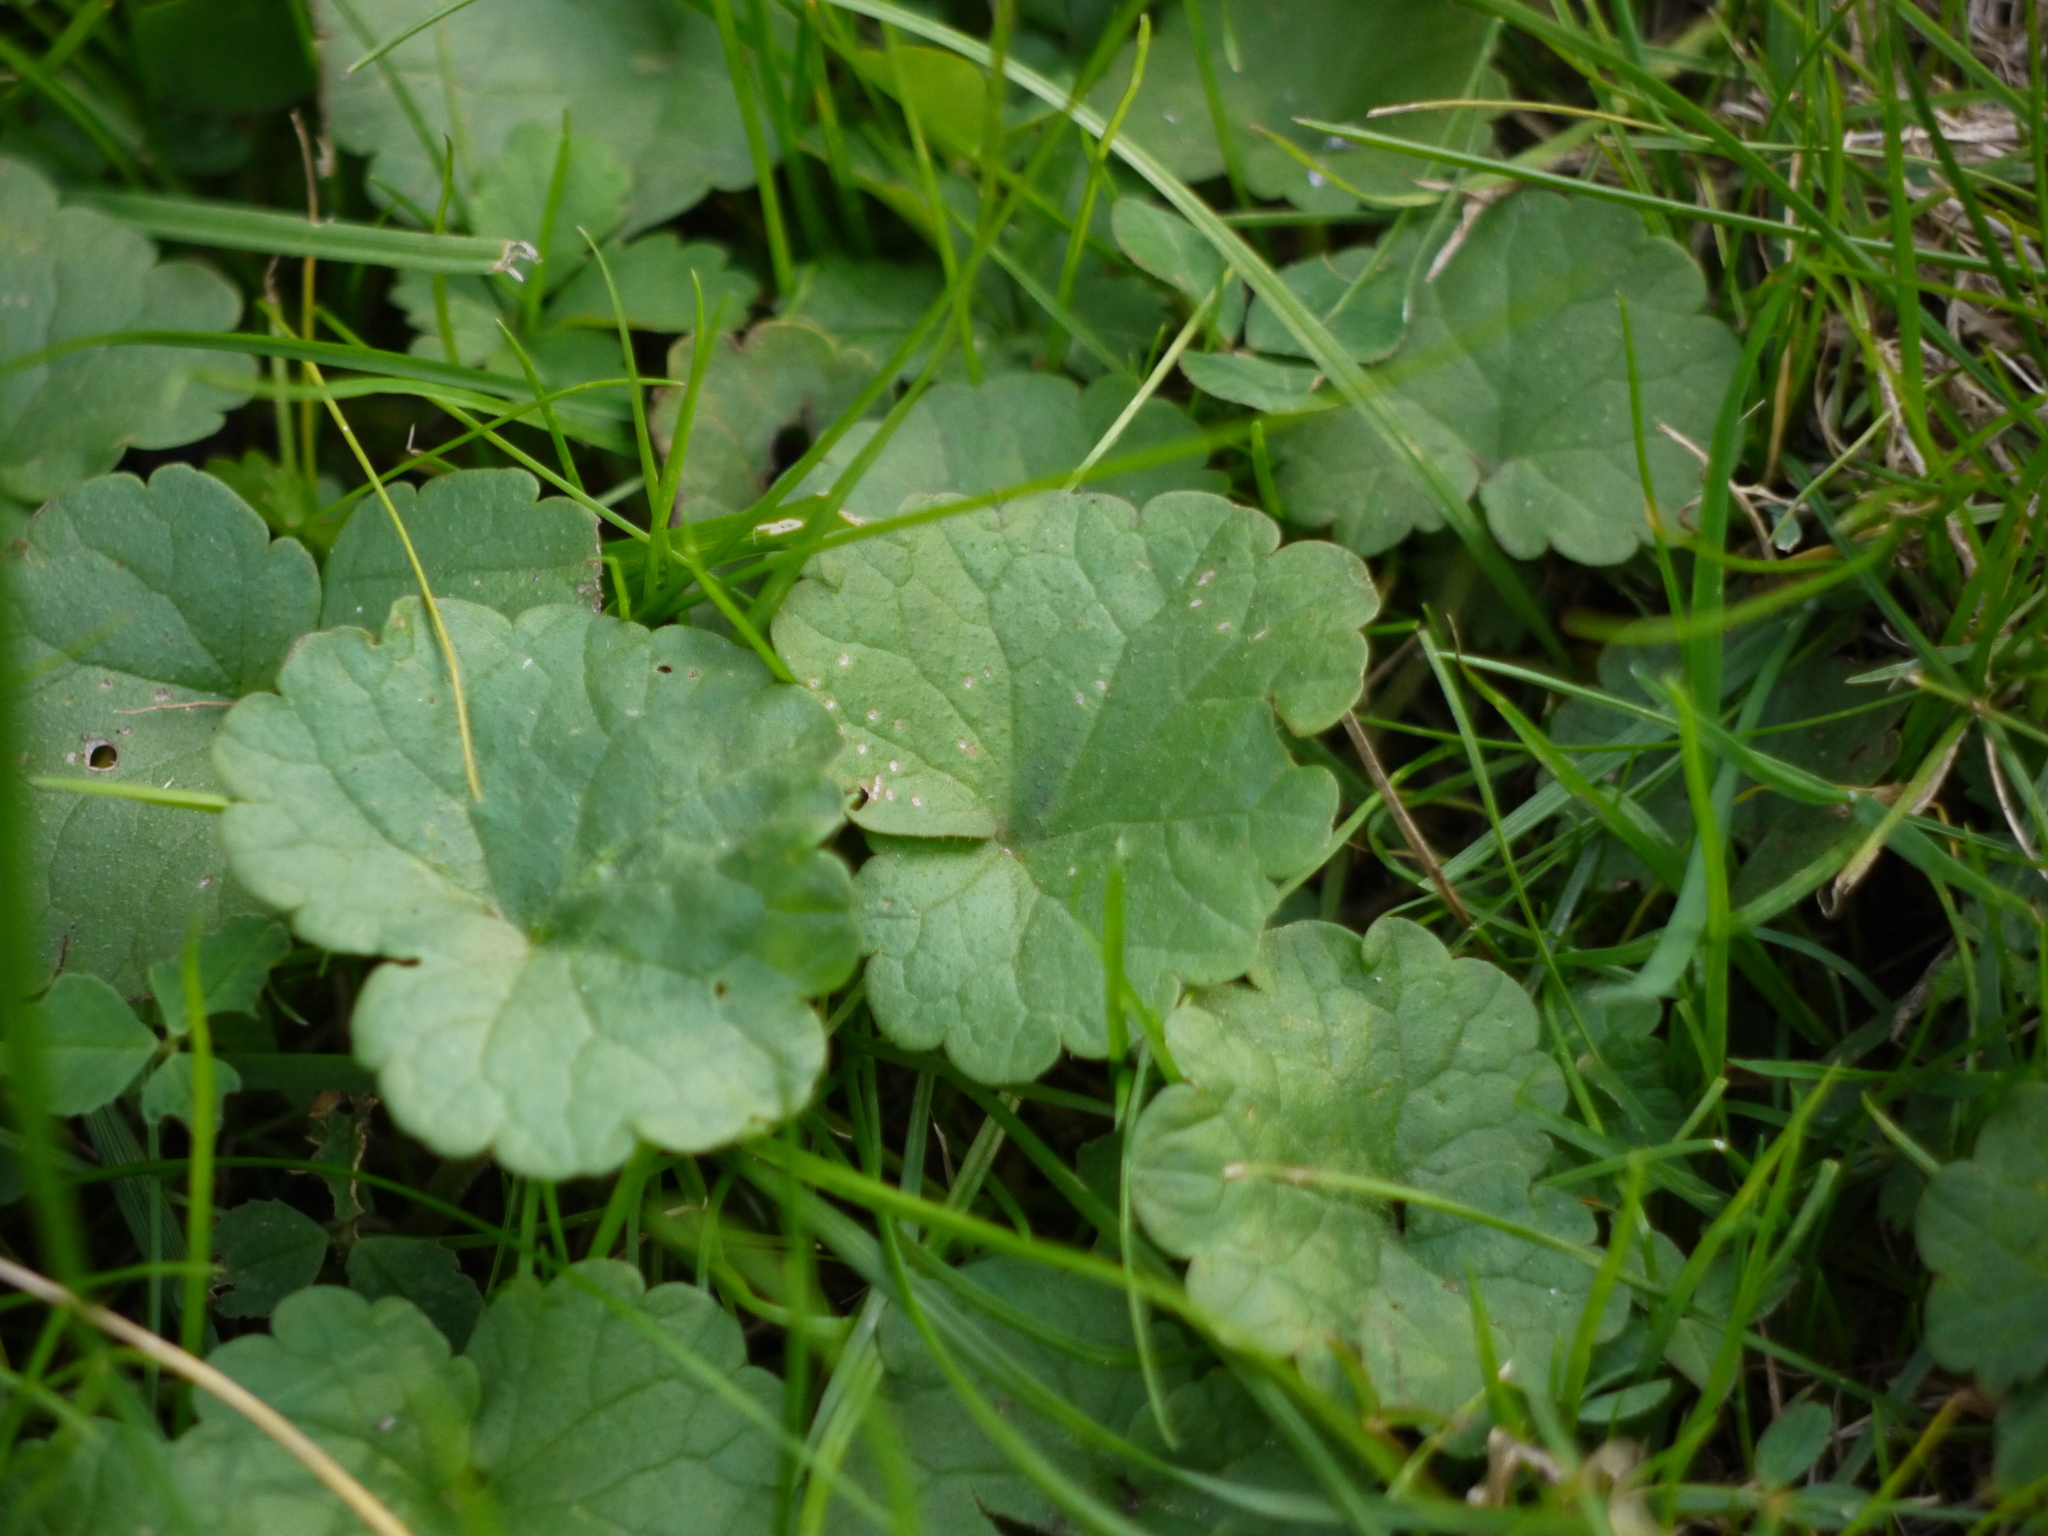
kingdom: Plantae
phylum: Tracheophyta
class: Magnoliopsida
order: Lamiales
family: Lamiaceae
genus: Glechoma
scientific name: Glechoma hederacea
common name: Ground ivy
